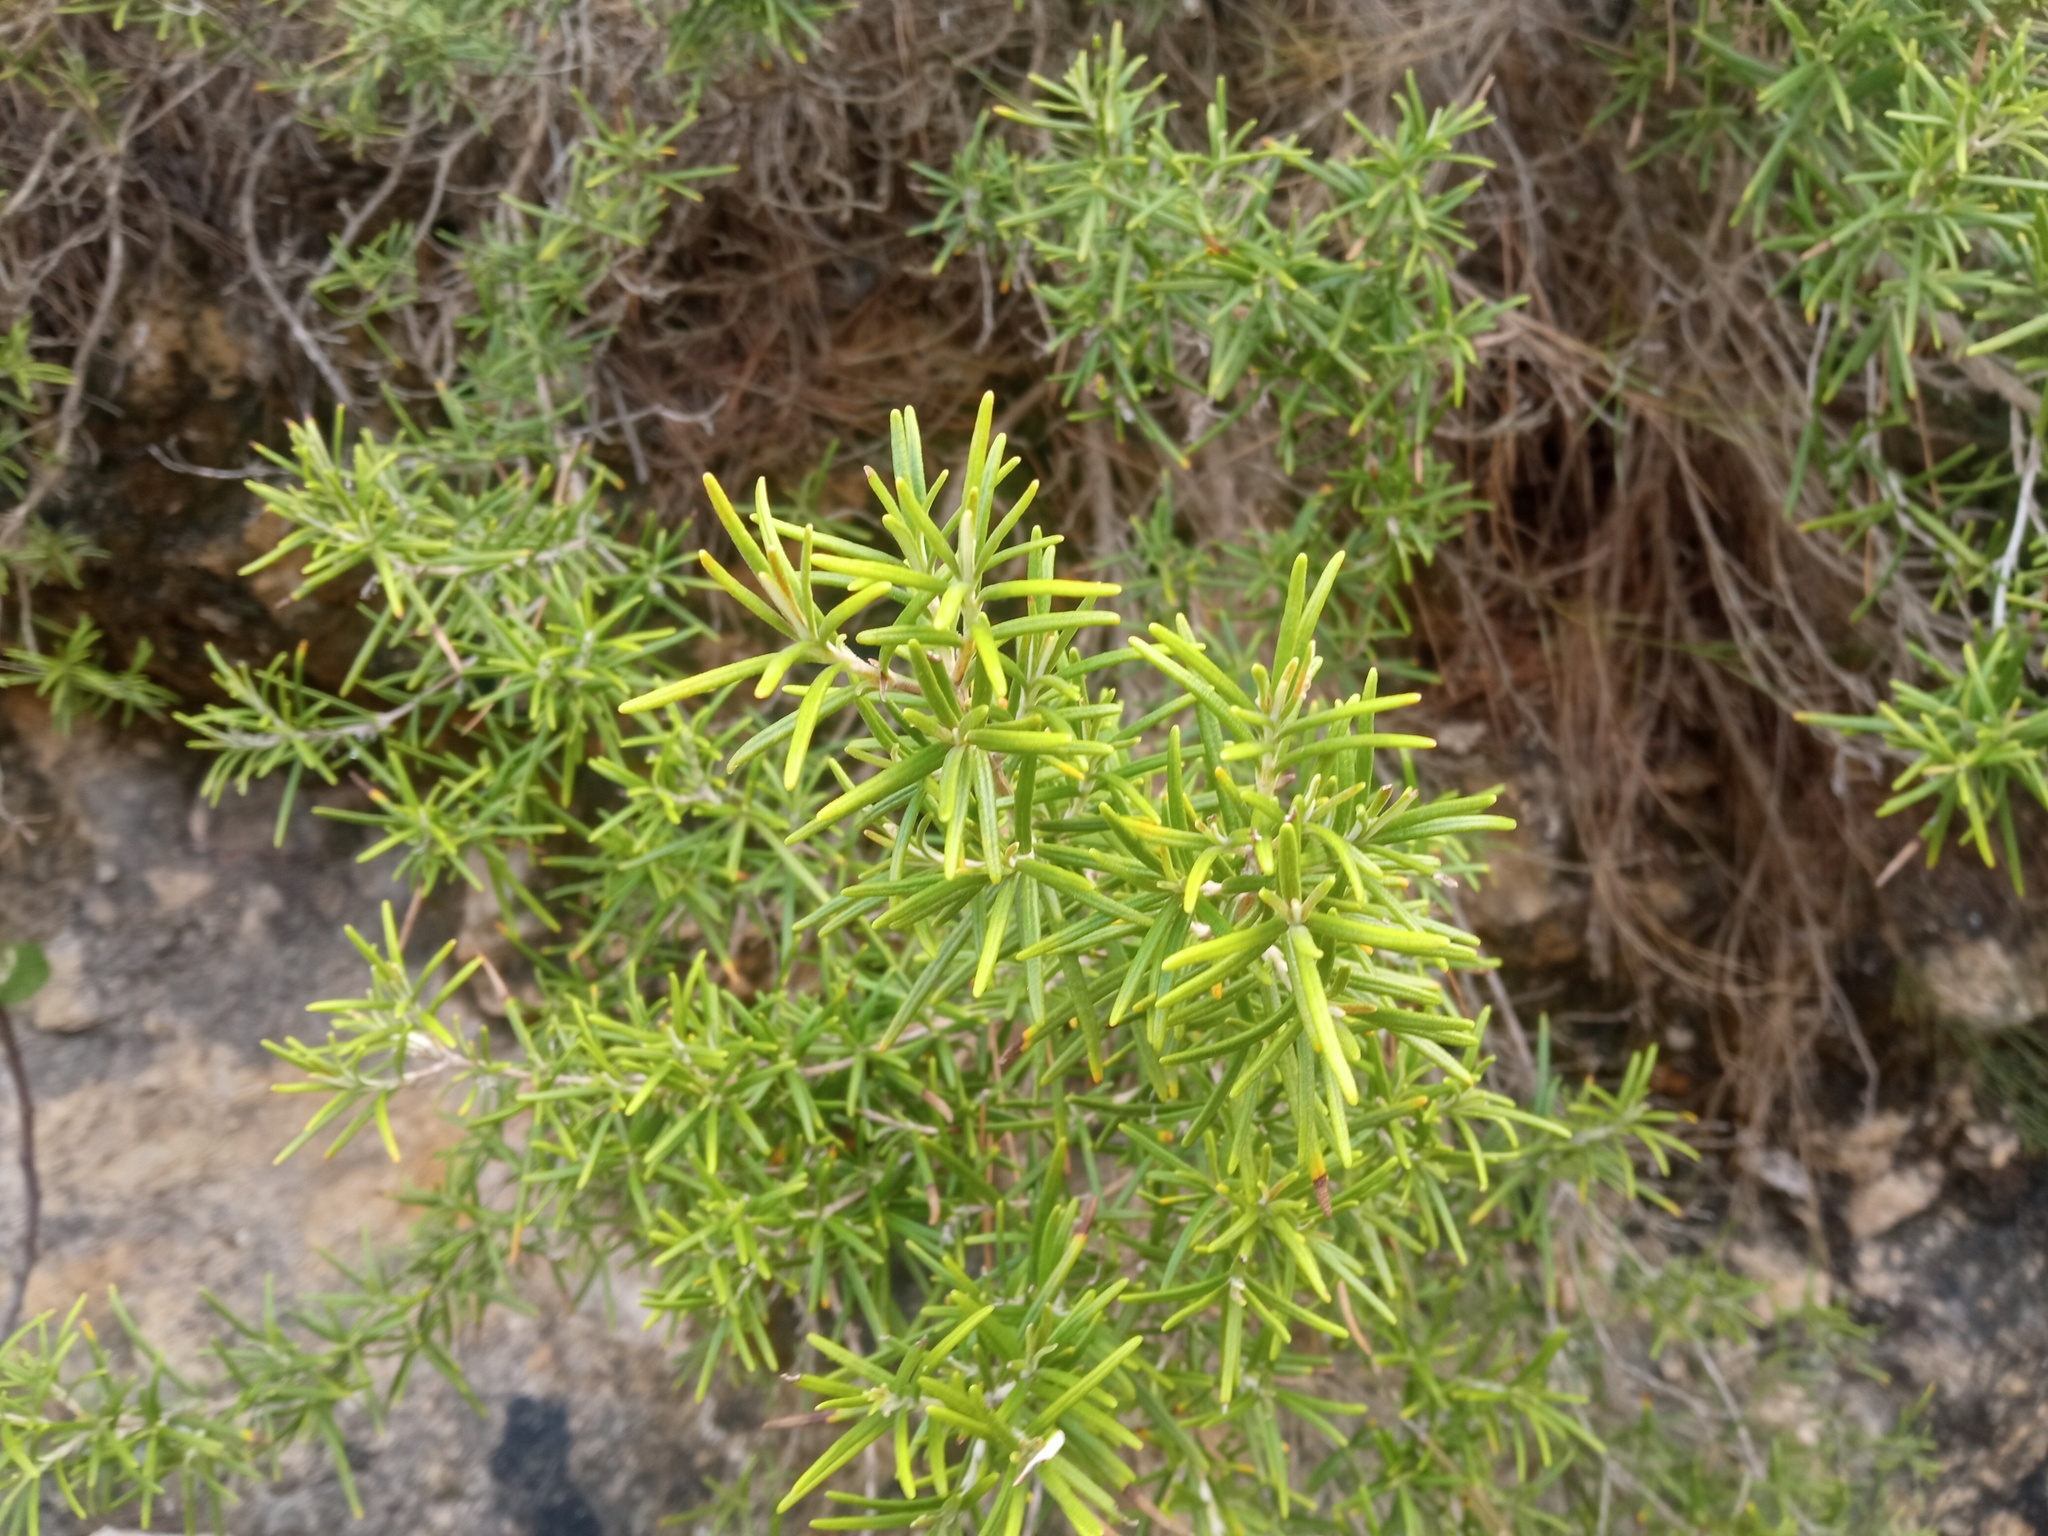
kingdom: Plantae
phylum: Tracheophyta
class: Magnoliopsida
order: Lamiales
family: Lamiaceae
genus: Salvia
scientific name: Salvia rosmarinus
